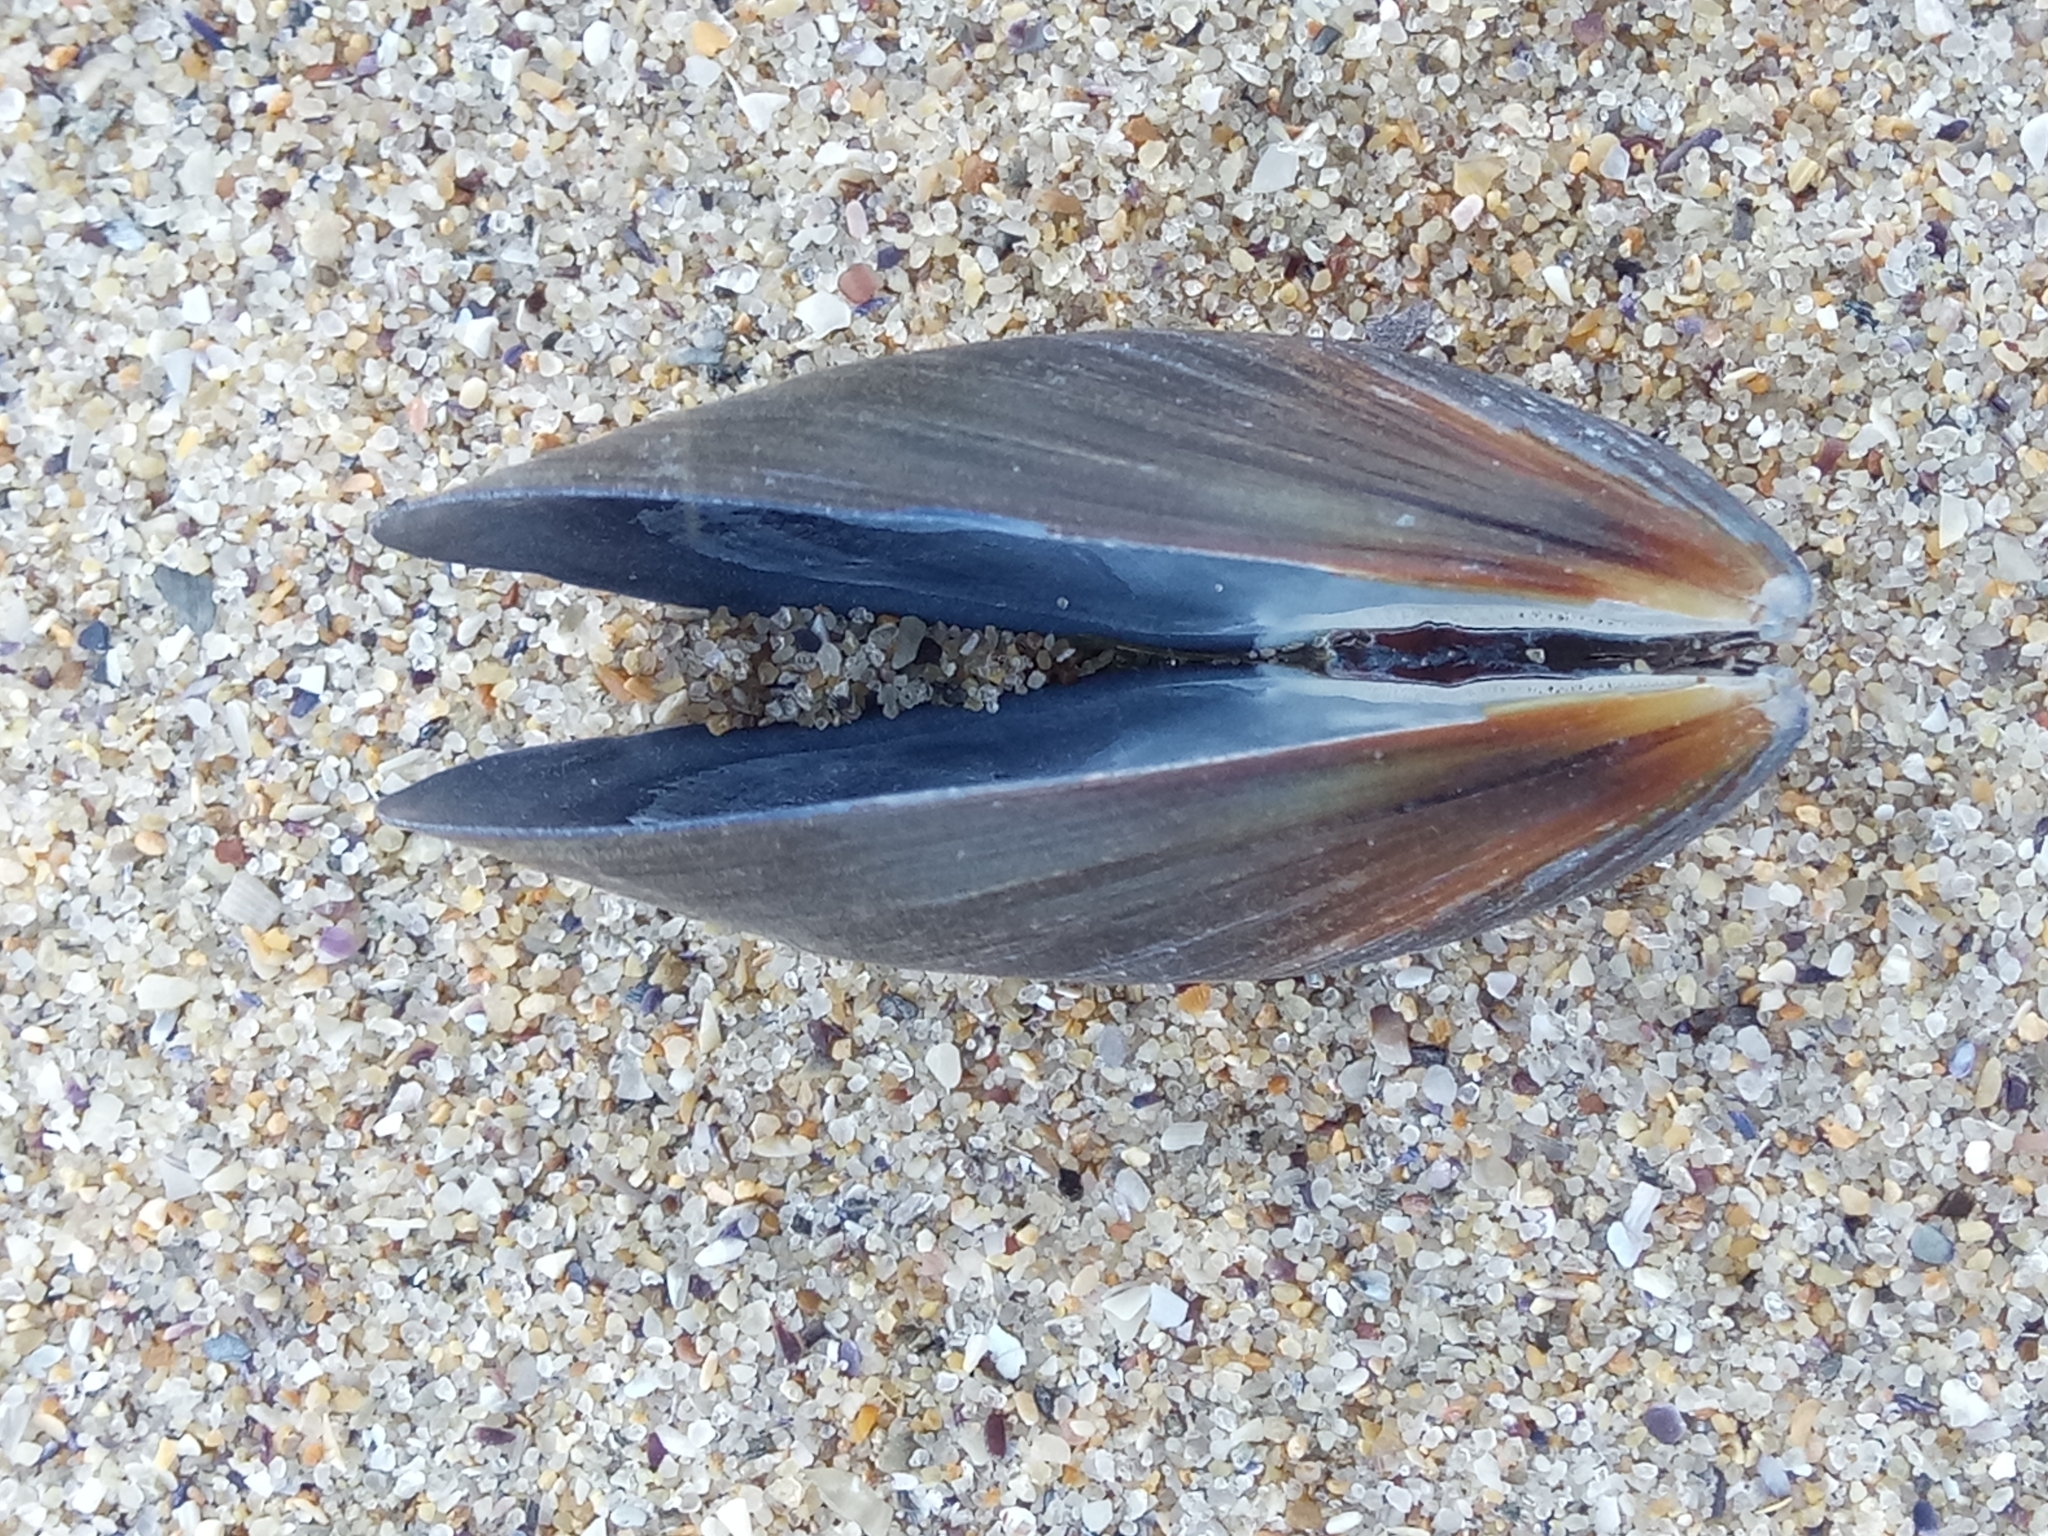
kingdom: Animalia
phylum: Mollusca
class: Bivalvia
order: Mytilida
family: Mytilidae
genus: Mytilus
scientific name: Mytilus galloprovincialis
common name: Mediterranean mussel
